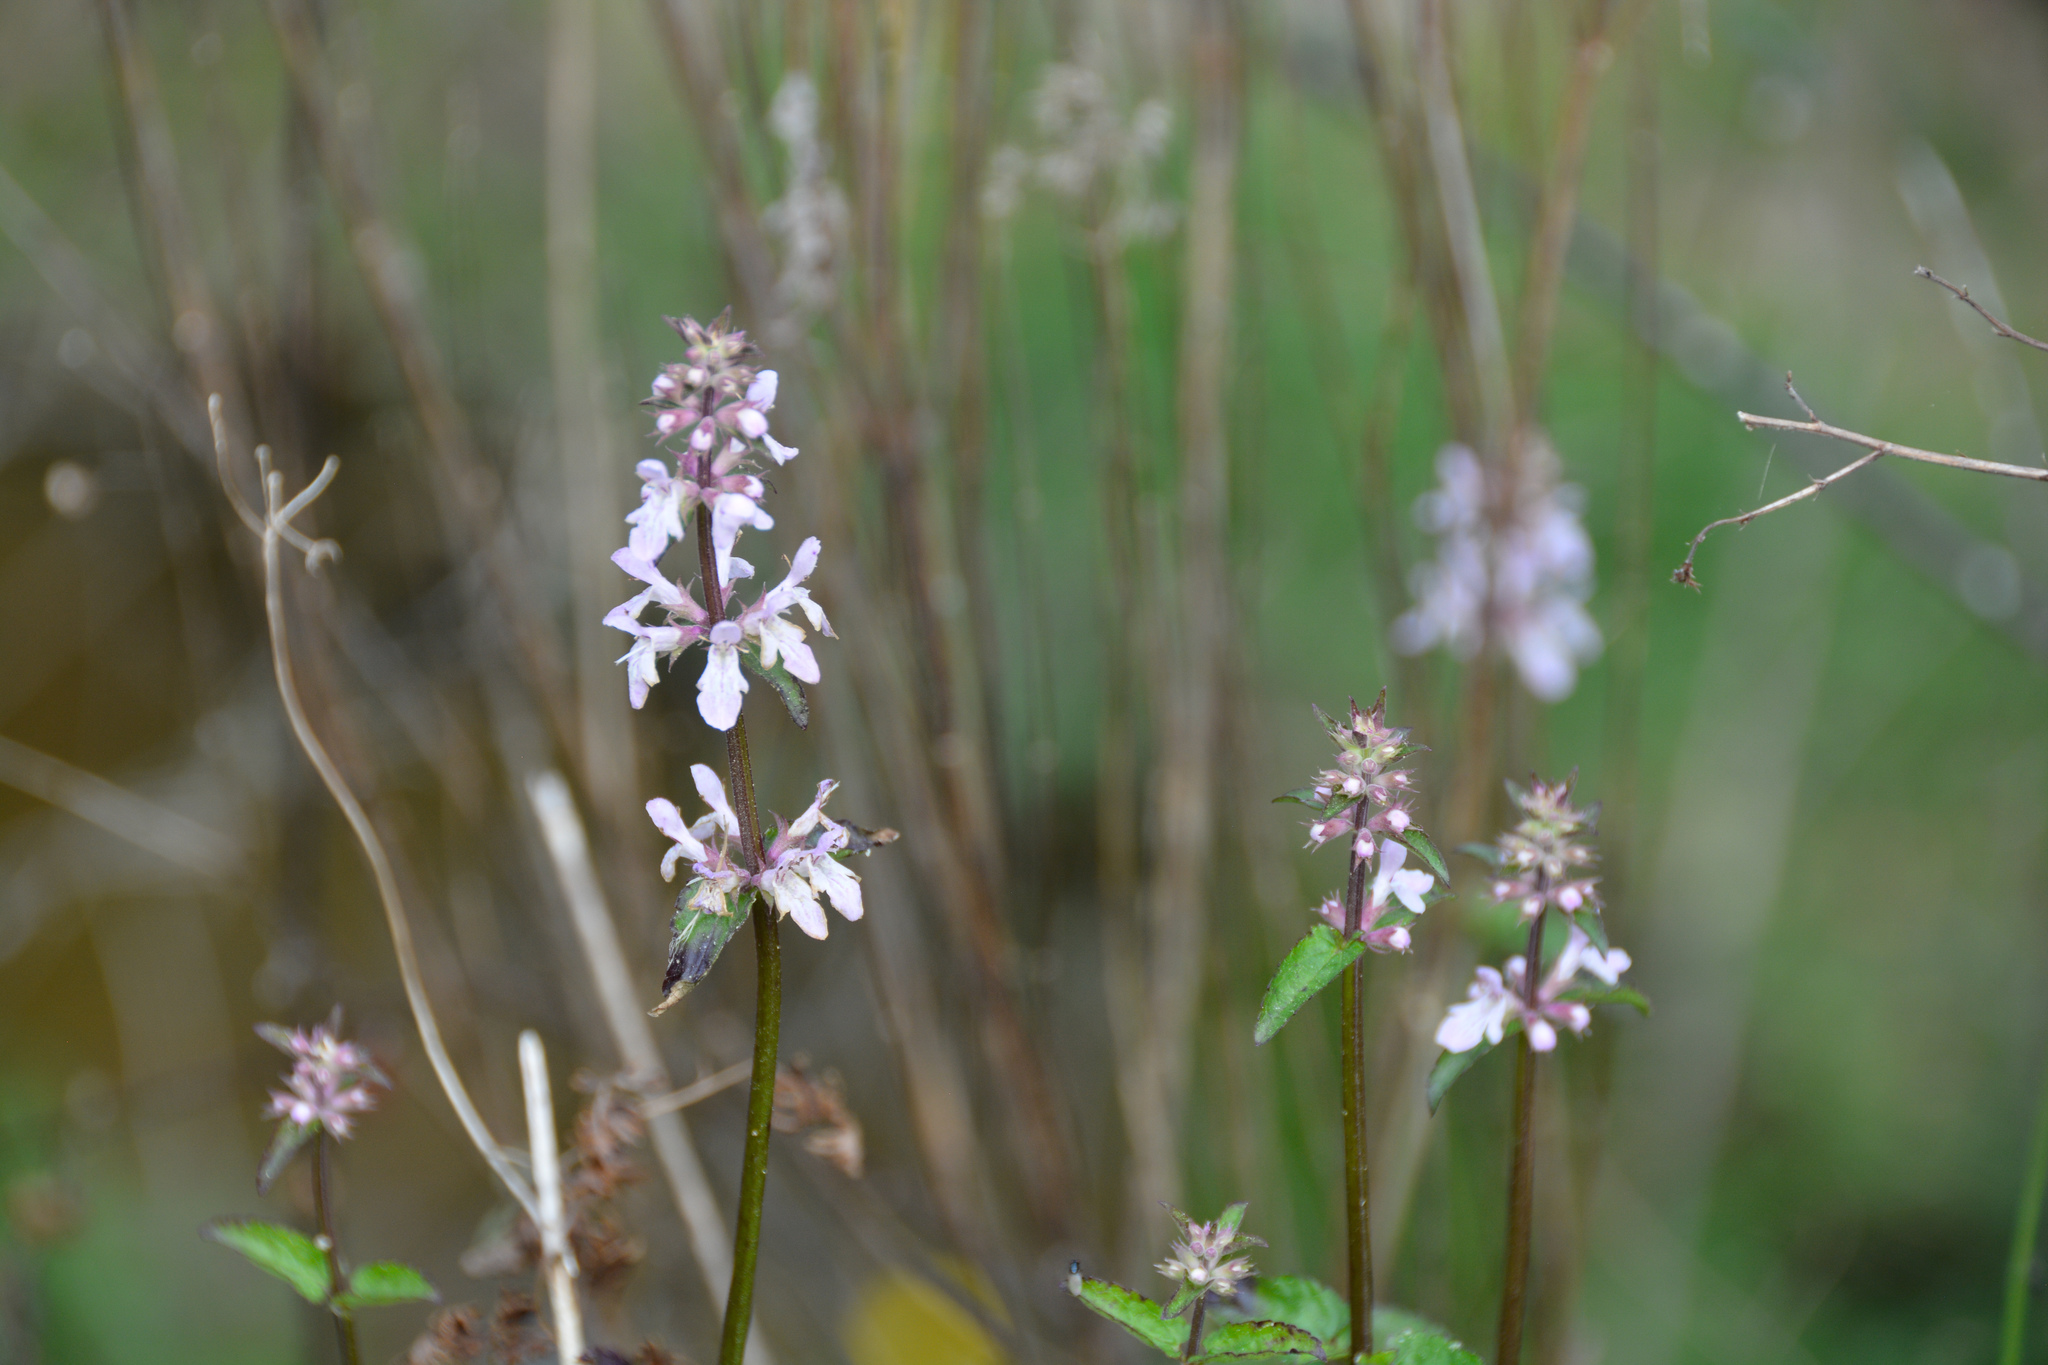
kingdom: Plantae
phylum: Tracheophyta
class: Magnoliopsida
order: Lamiales
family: Lamiaceae
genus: Stachys
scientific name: Stachys floridana
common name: Florida betony
